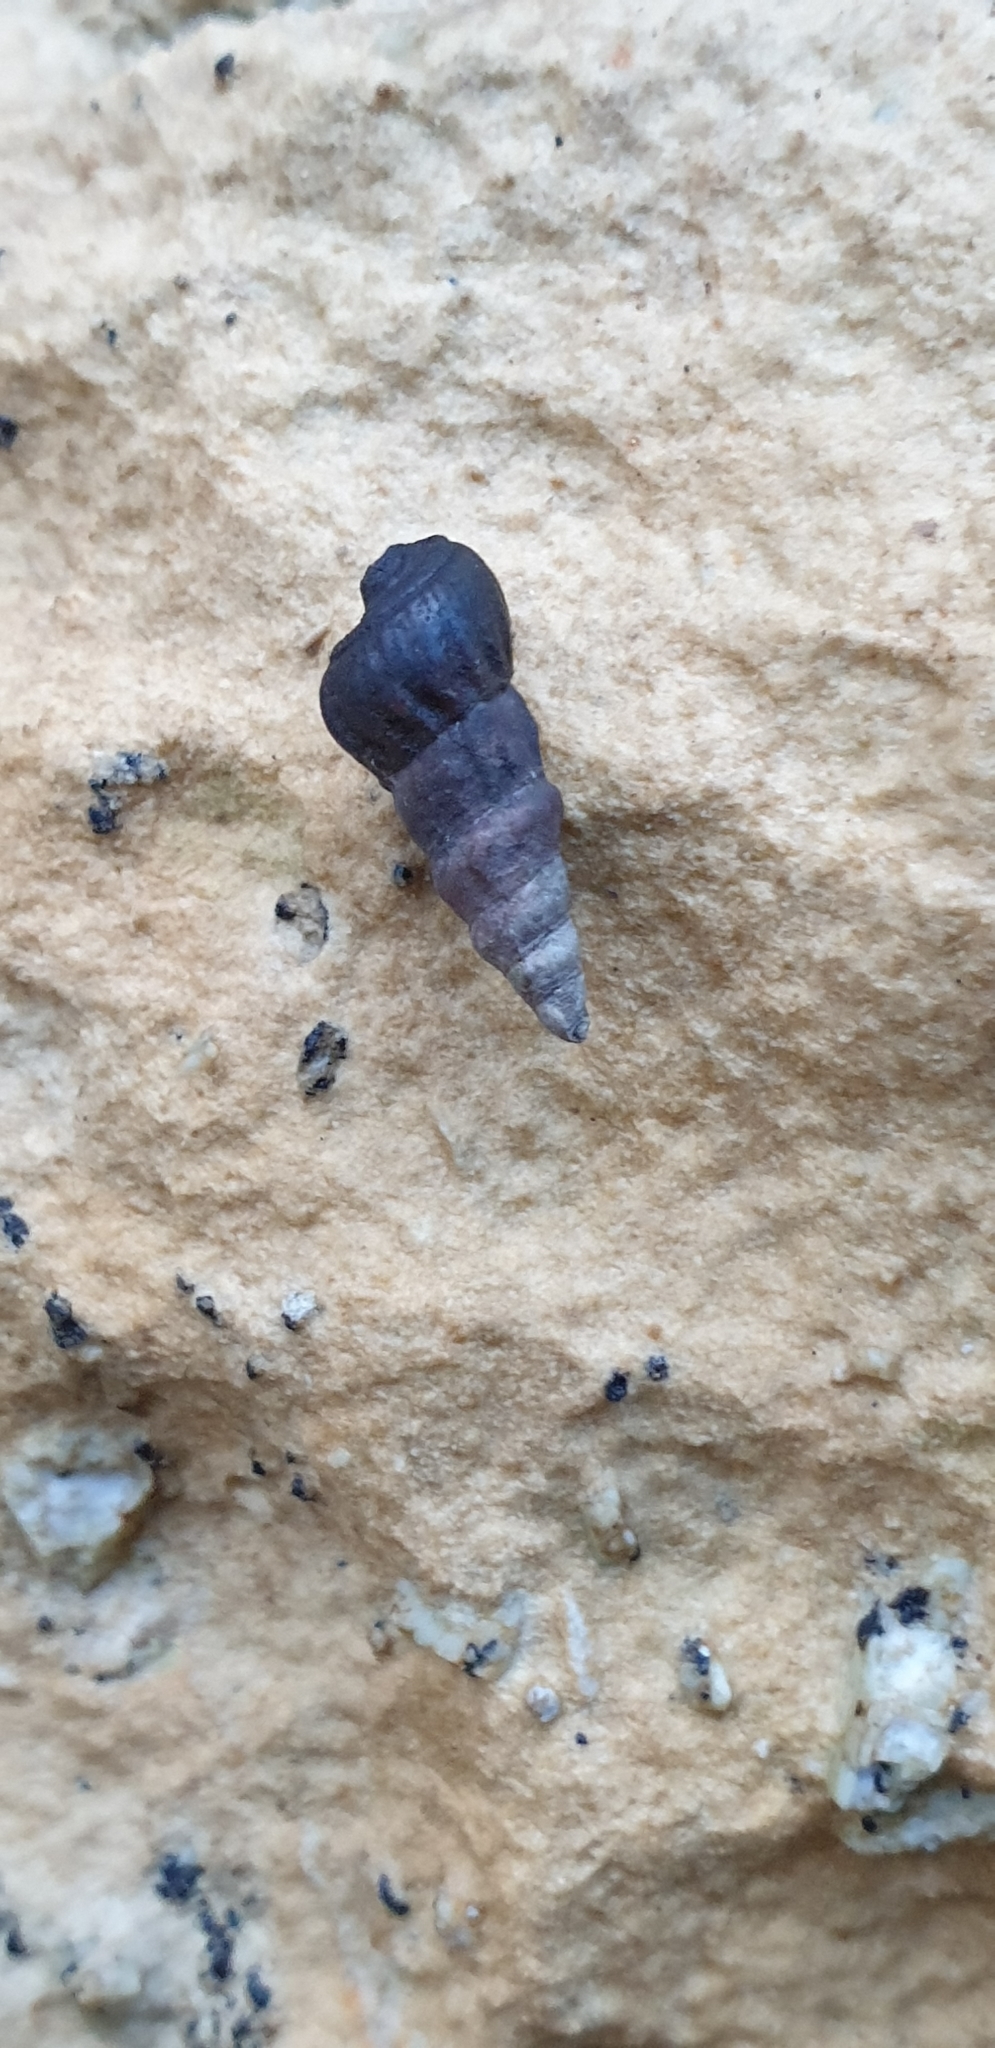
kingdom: Animalia
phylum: Mollusca
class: Gastropoda
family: Batillariidae
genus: Zeacumantus
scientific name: Zeacumantus subcarinatus
